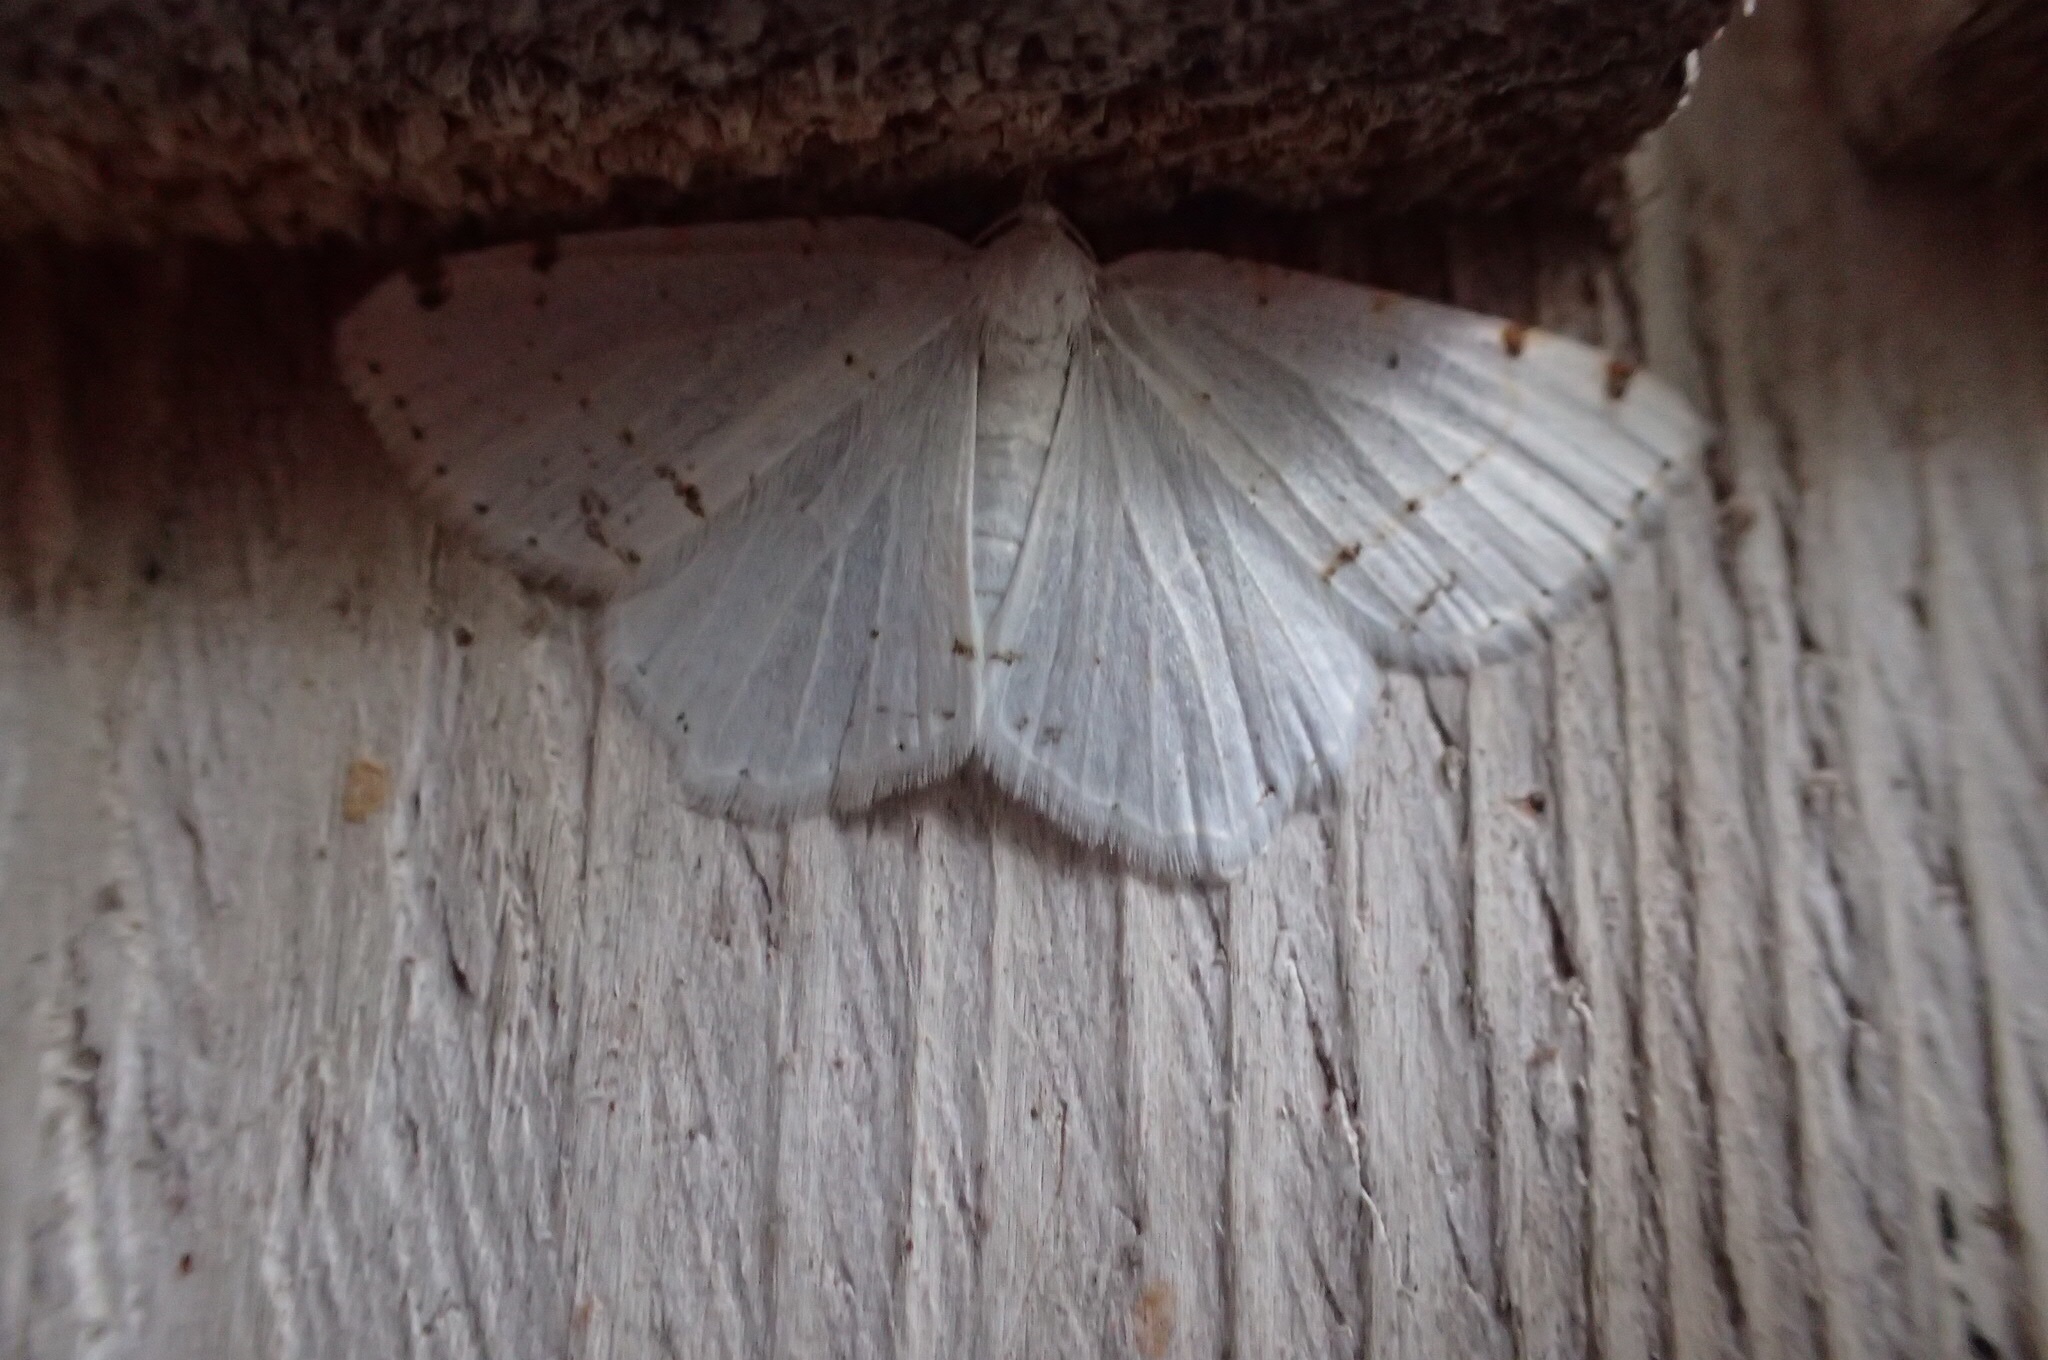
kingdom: Animalia
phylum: Arthropoda
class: Insecta
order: Lepidoptera
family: Geometridae
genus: Macaria
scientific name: Macaria pustularia
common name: Lesser maple spanworm moth
